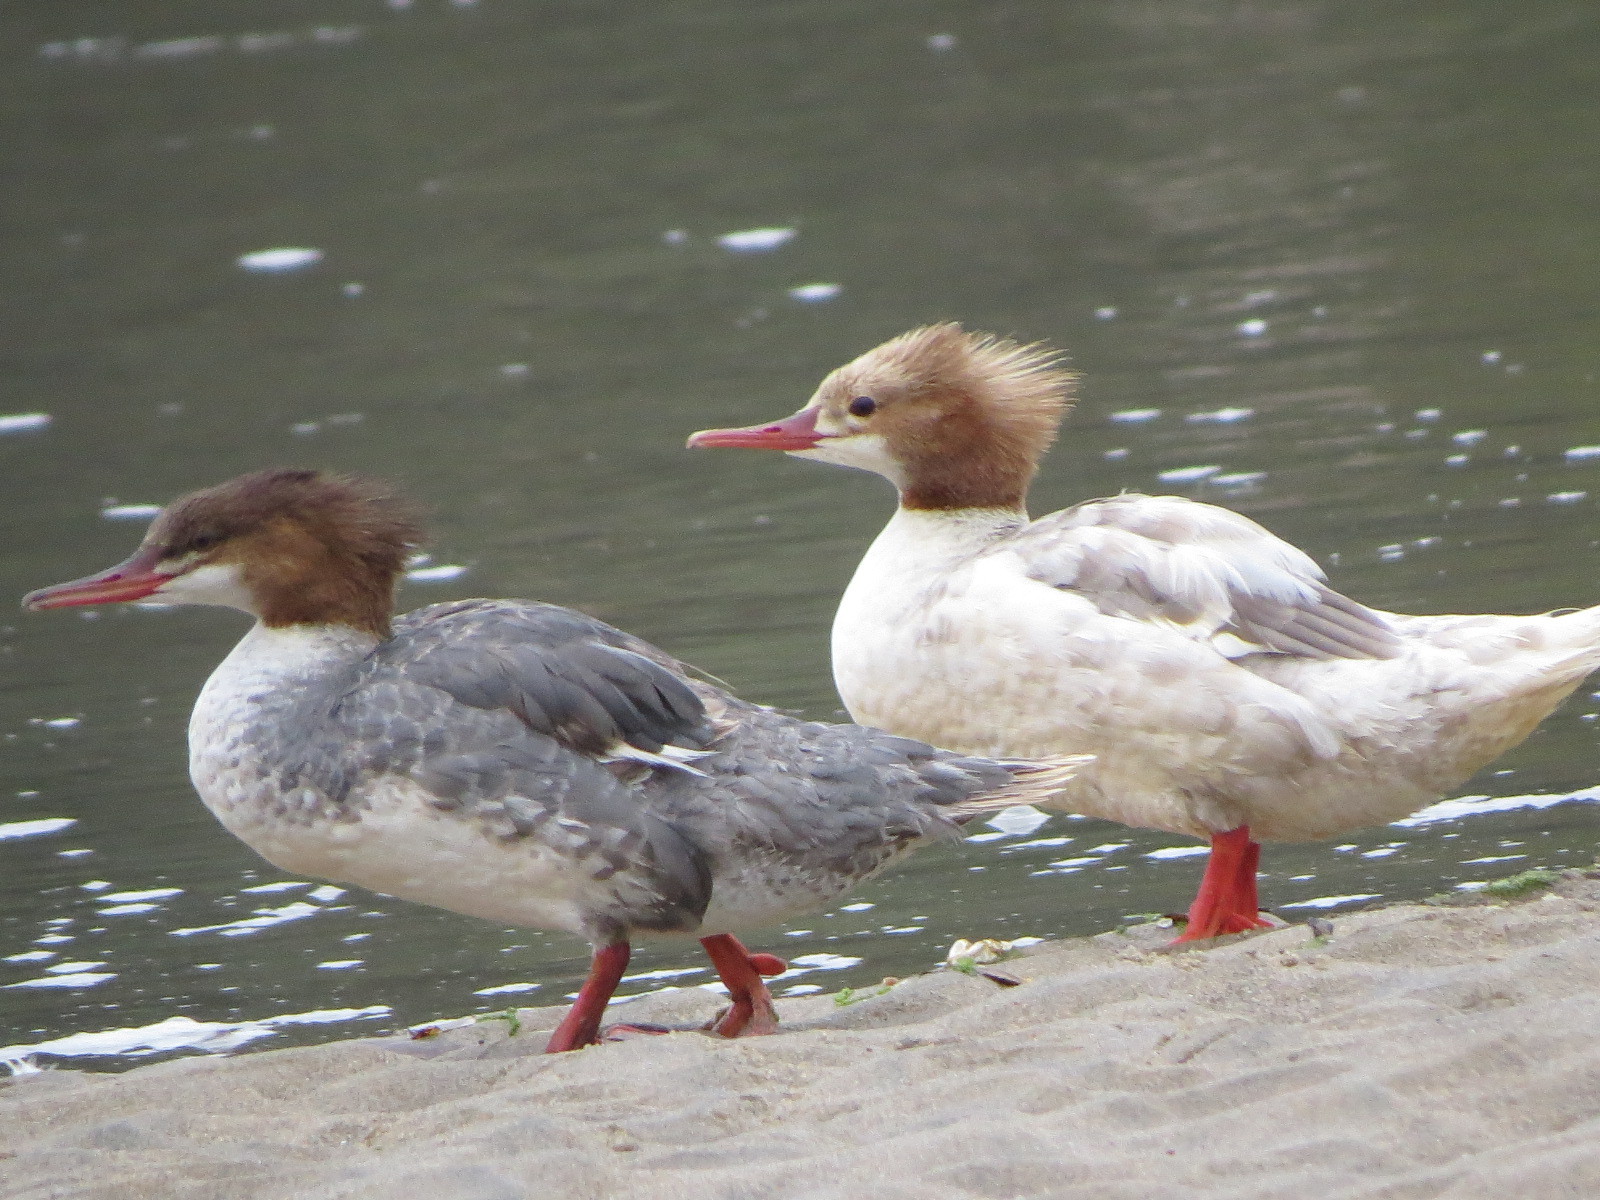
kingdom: Animalia
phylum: Chordata
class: Aves
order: Anseriformes
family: Anatidae
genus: Mergus
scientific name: Mergus merganser
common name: Common merganser
